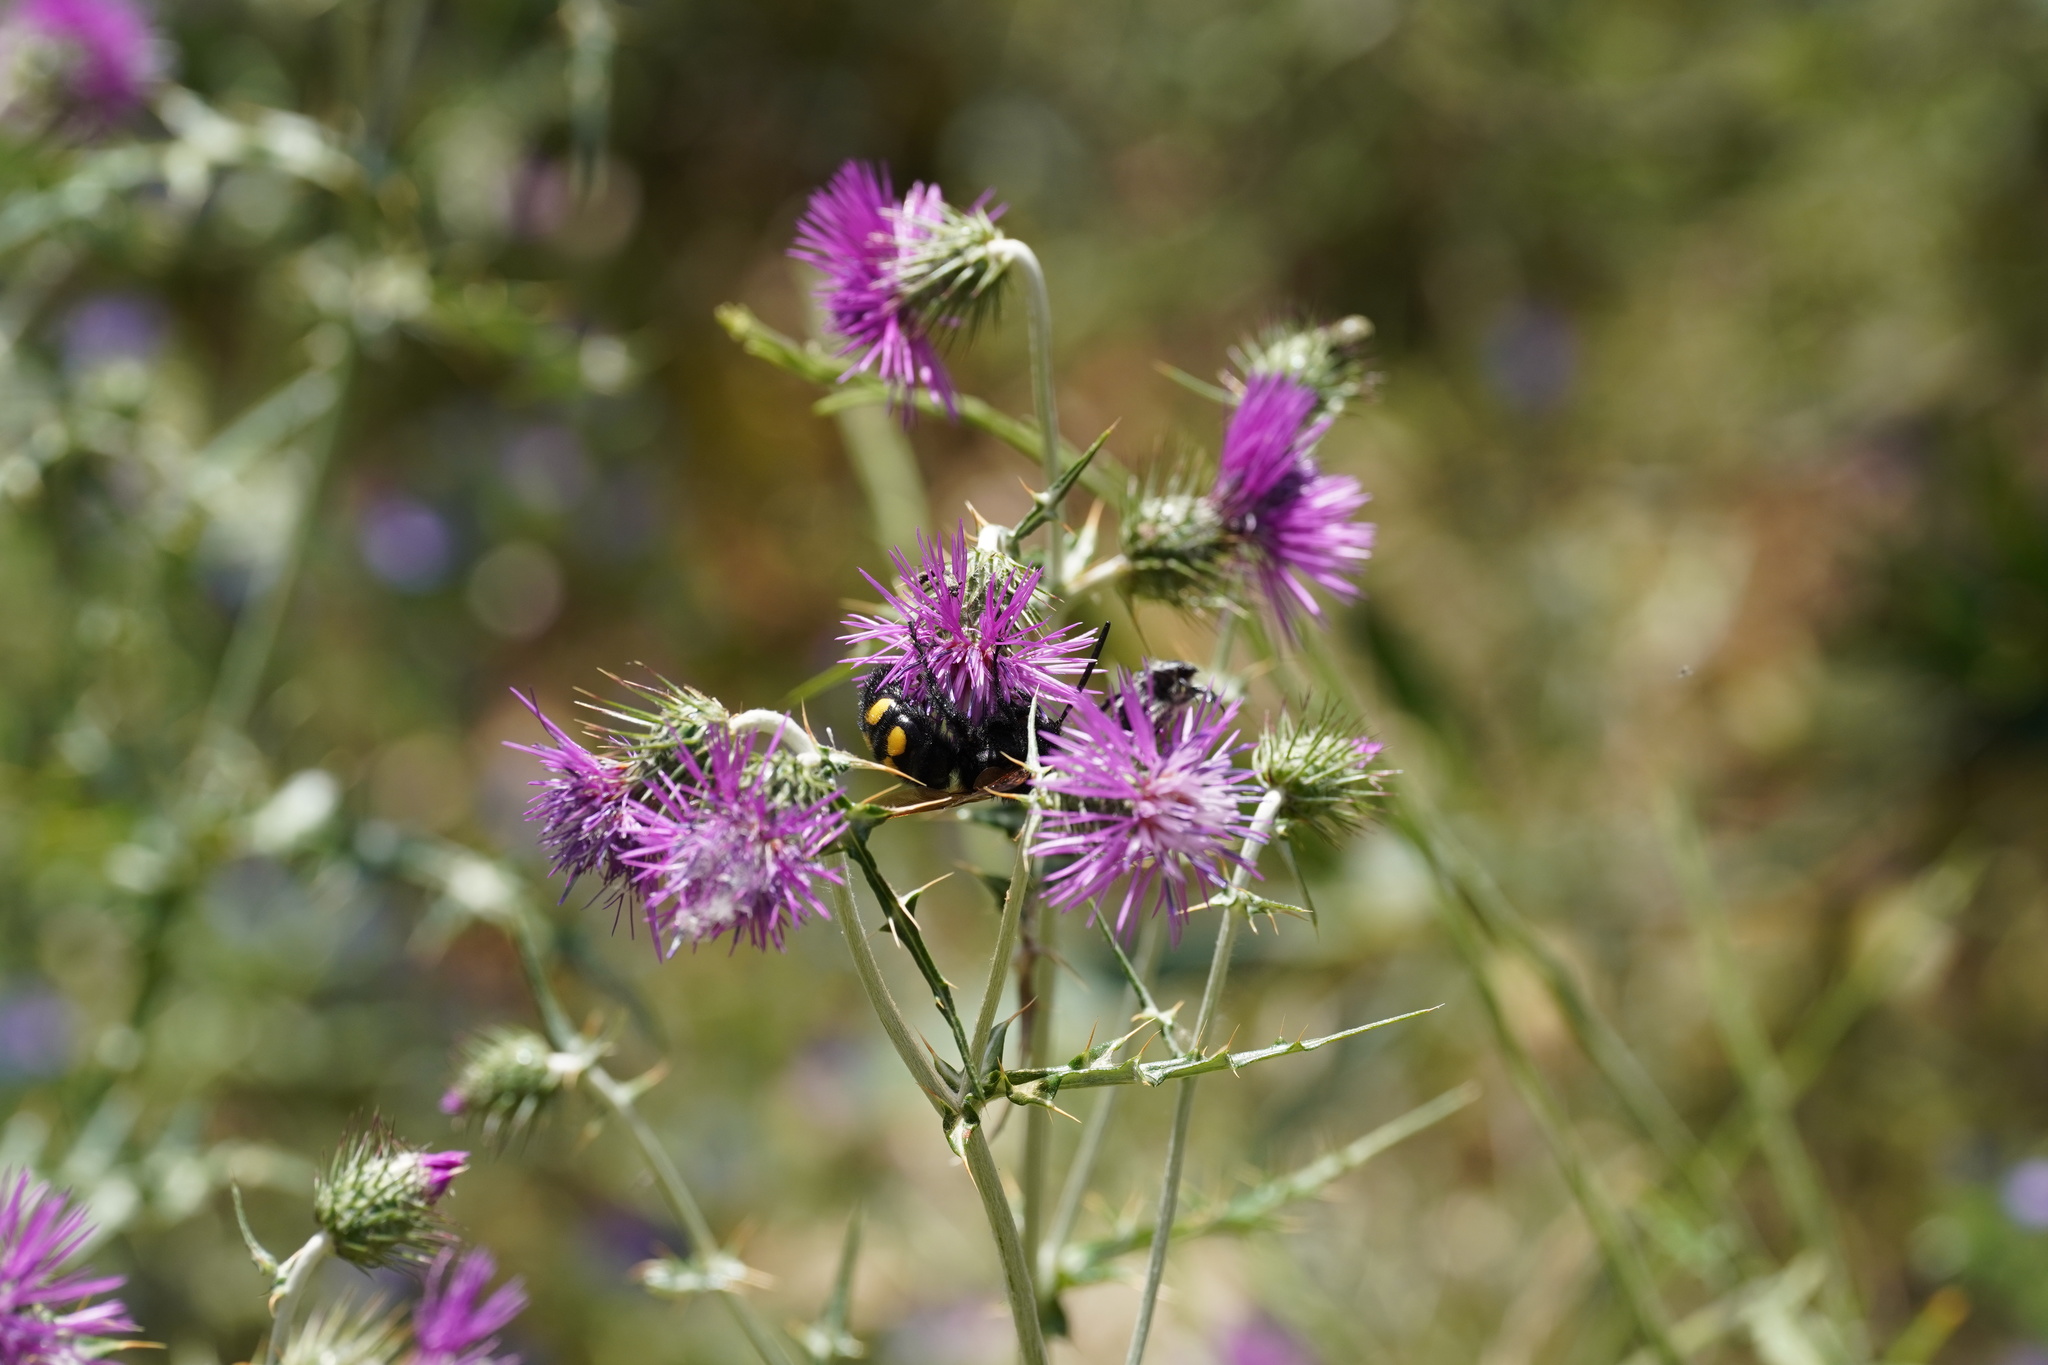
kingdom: Animalia
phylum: Arthropoda
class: Insecta
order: Hymenoptera
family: Scoliidae
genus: Megascolia
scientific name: Megascolia maculata
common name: Mammoth wasp
